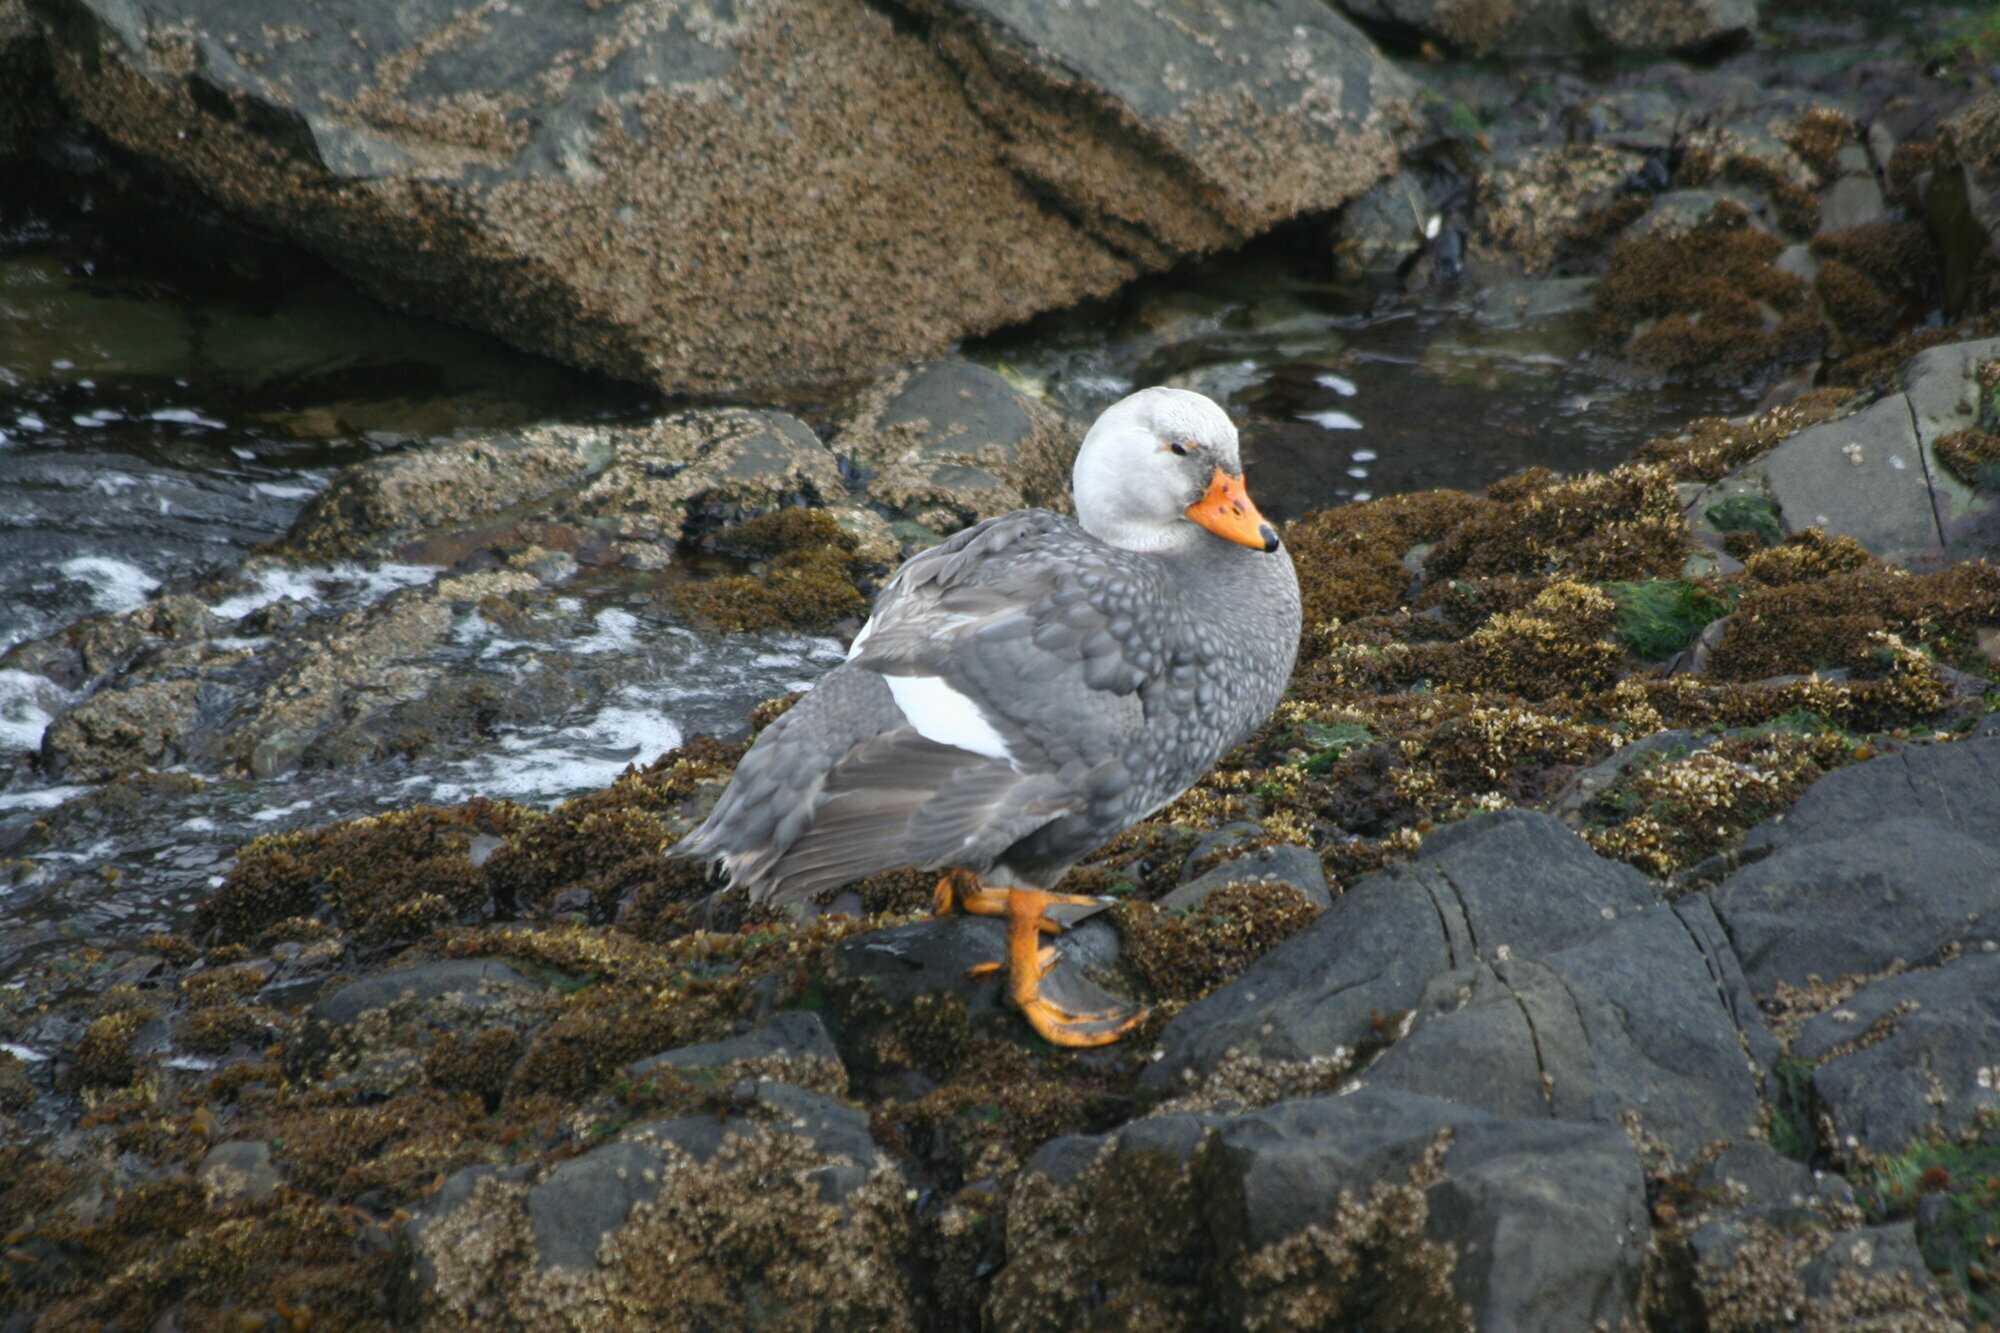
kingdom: Animalia
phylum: Chordata
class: Aves
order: Anseriformes
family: Anatidae
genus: Tachyeres
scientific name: Tachyeres pteneres
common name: Fuegian steamer duck
